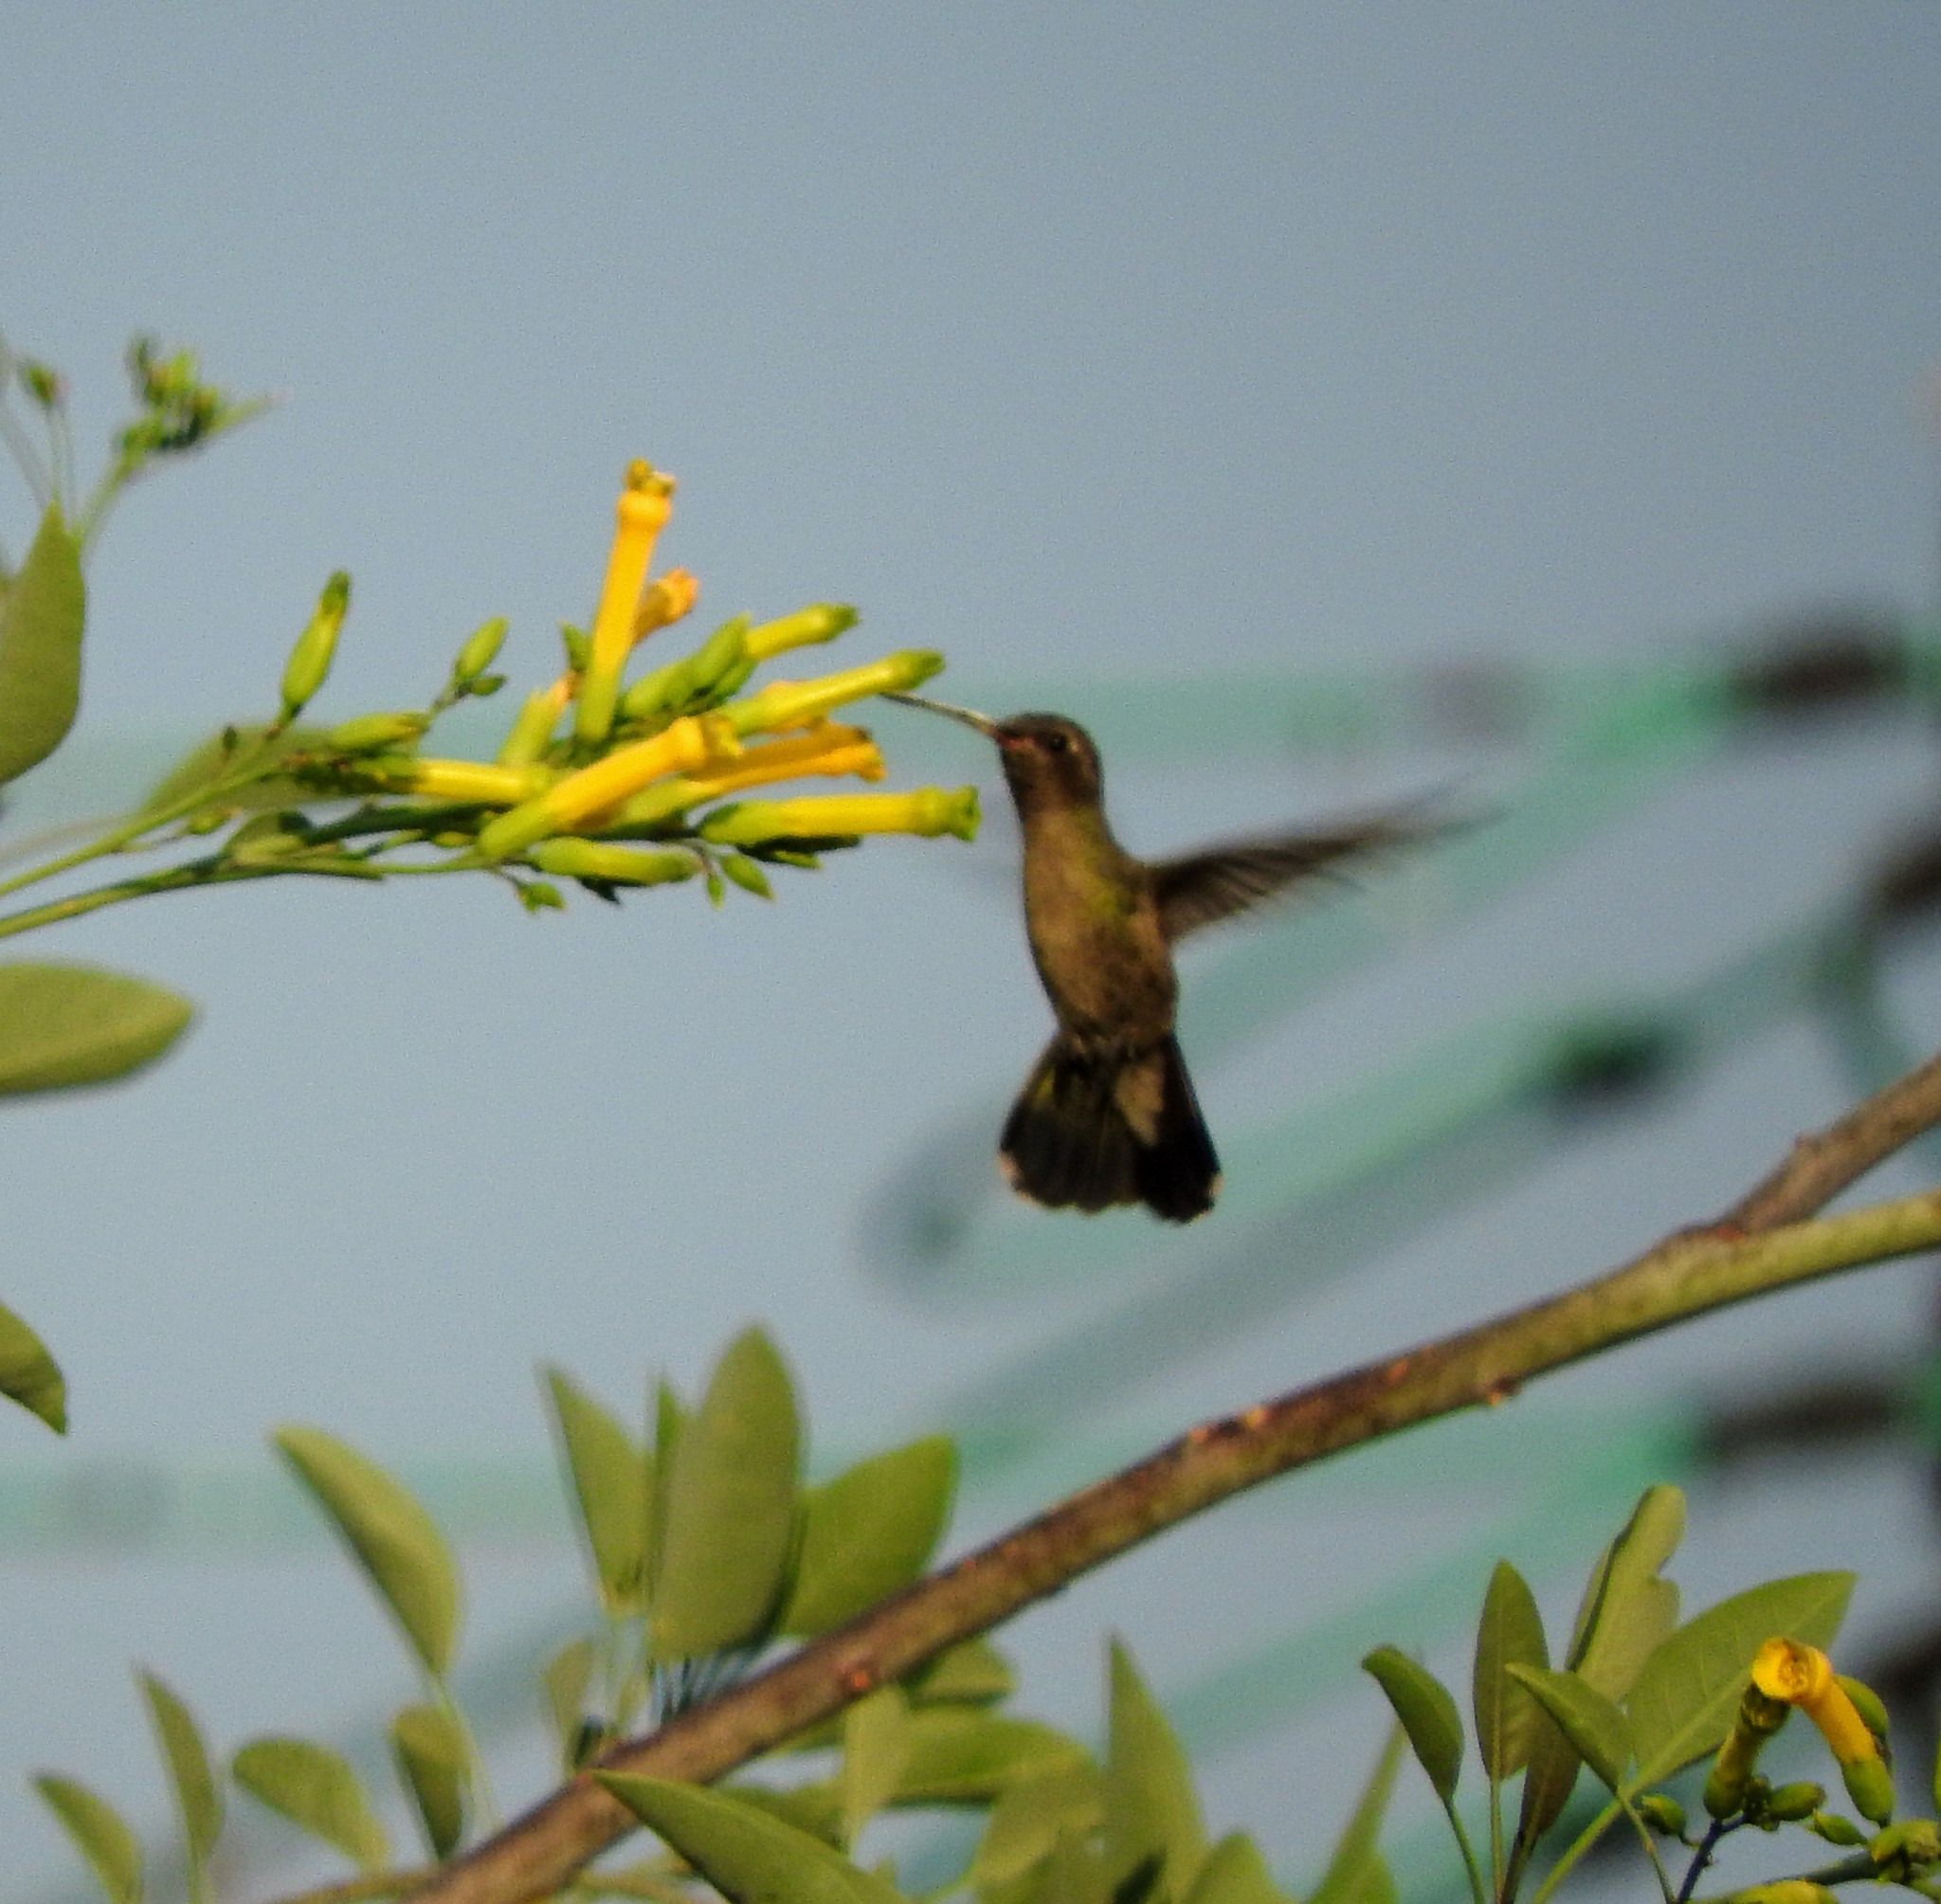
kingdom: Animalia
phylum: Chordata
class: Aves
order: Apodiformes
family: Trochilidae
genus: Cynanthus
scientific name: Cynanthus latirostris
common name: Broad-billed hummingbird
